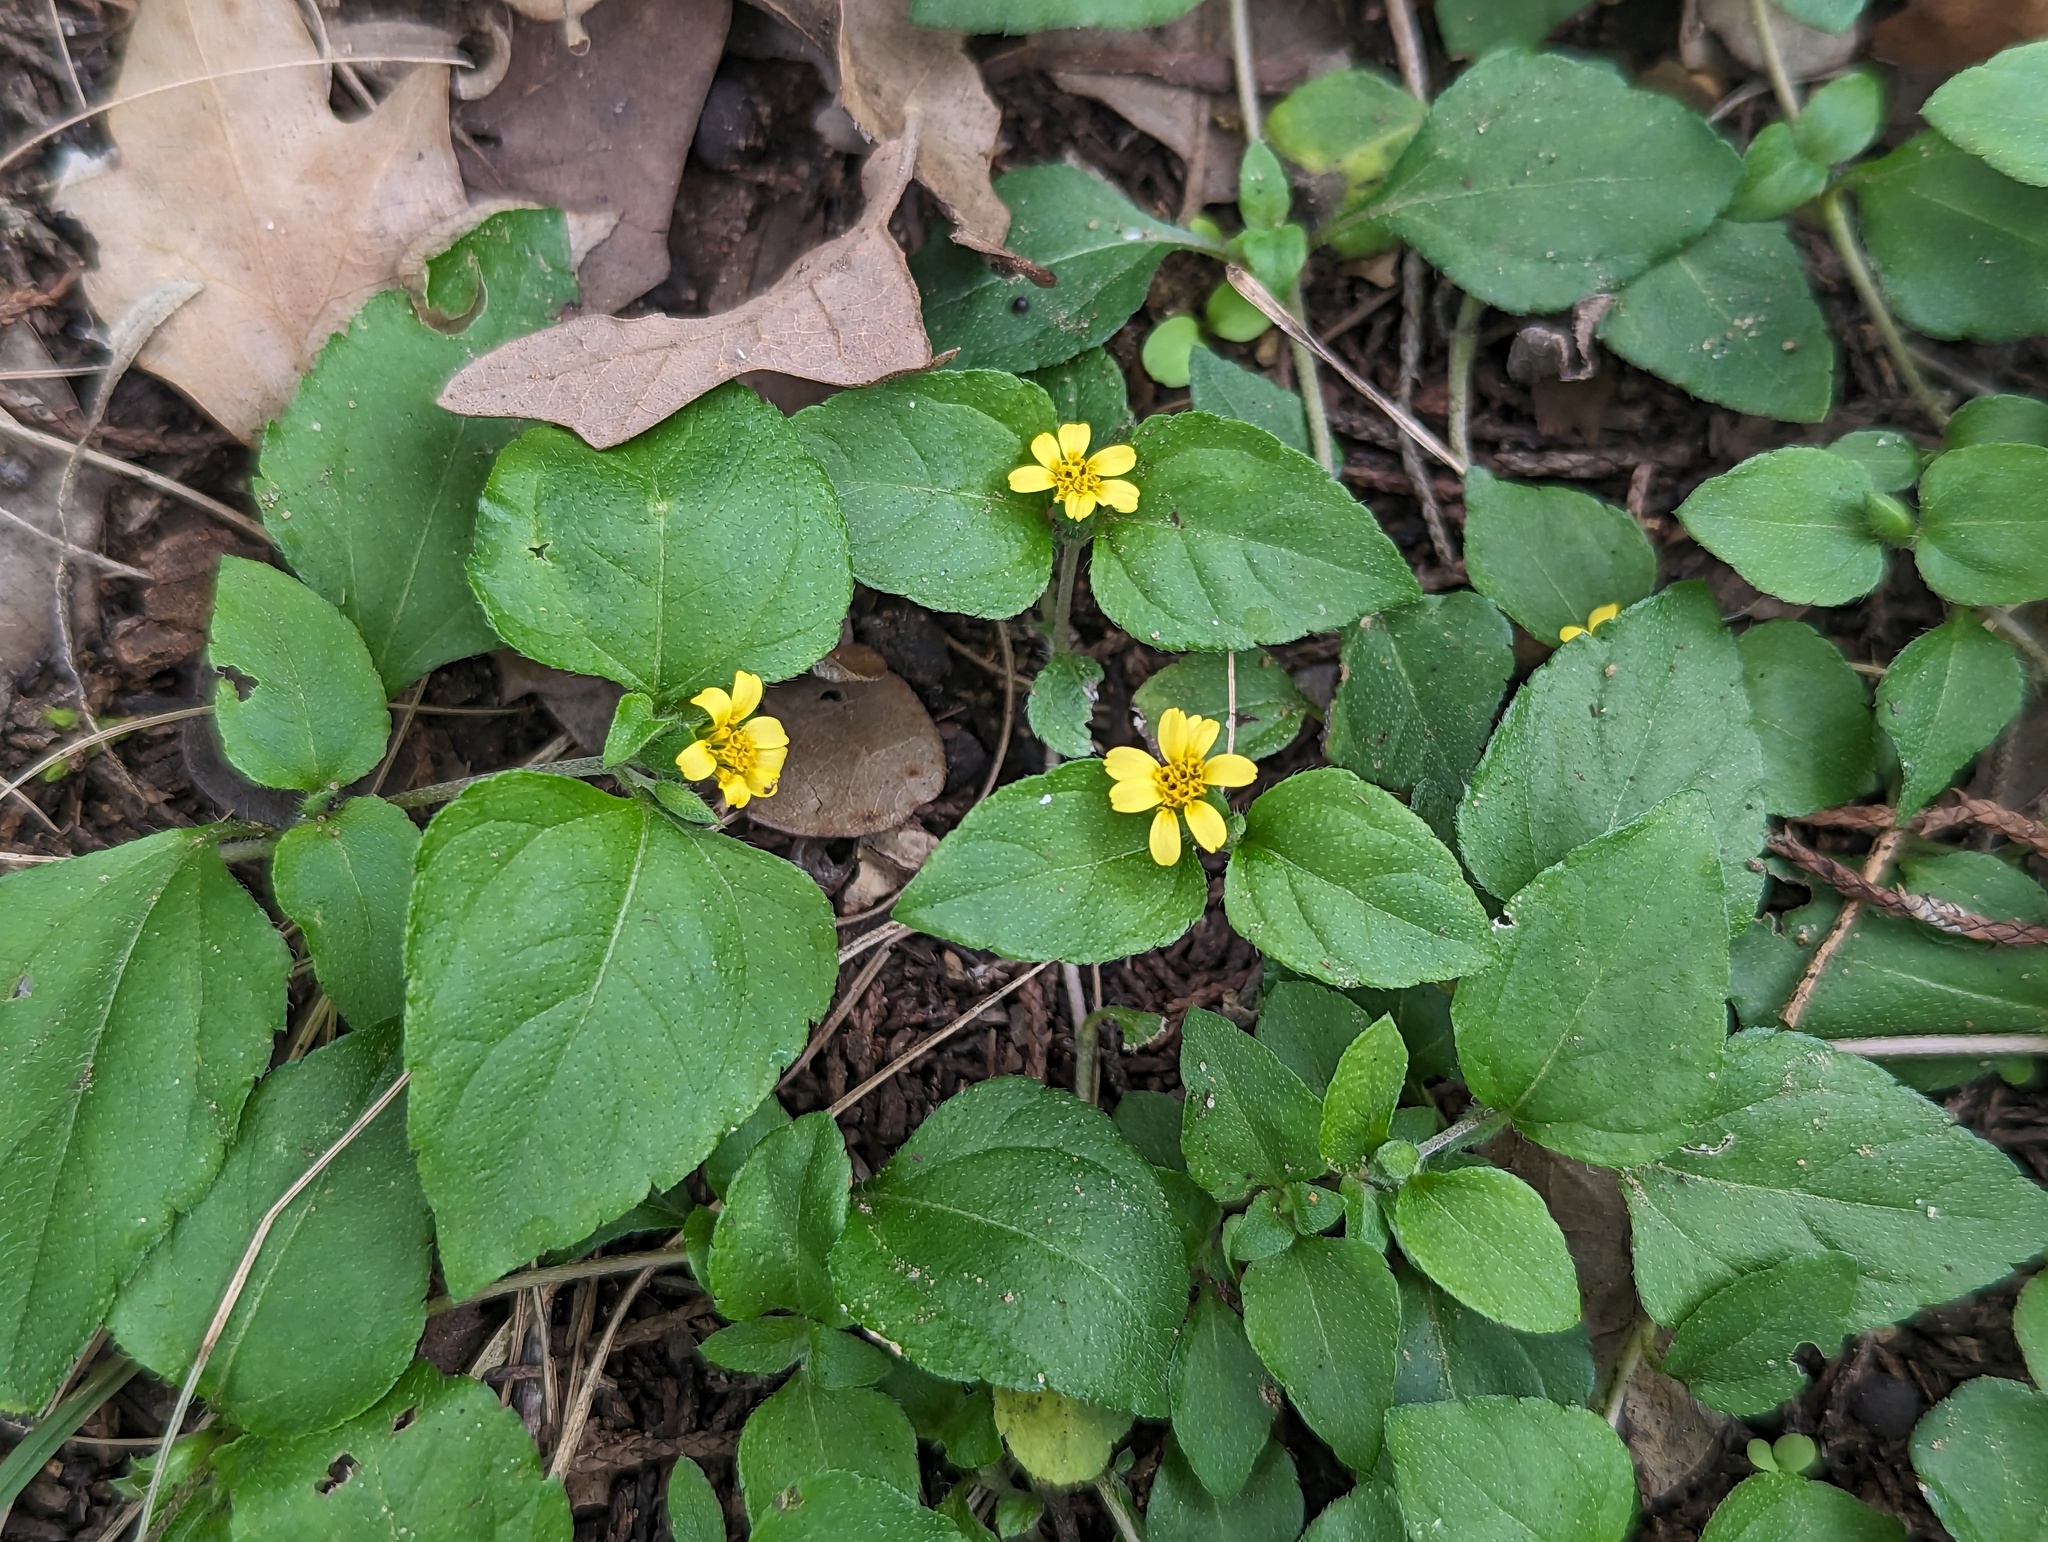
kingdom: Plantae
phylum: Tracheophyta
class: Magnoliopsida
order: Asterales
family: Asteraceae
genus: Calyptocarpus
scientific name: Calyptocarpus vialis
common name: Straggler daisy
